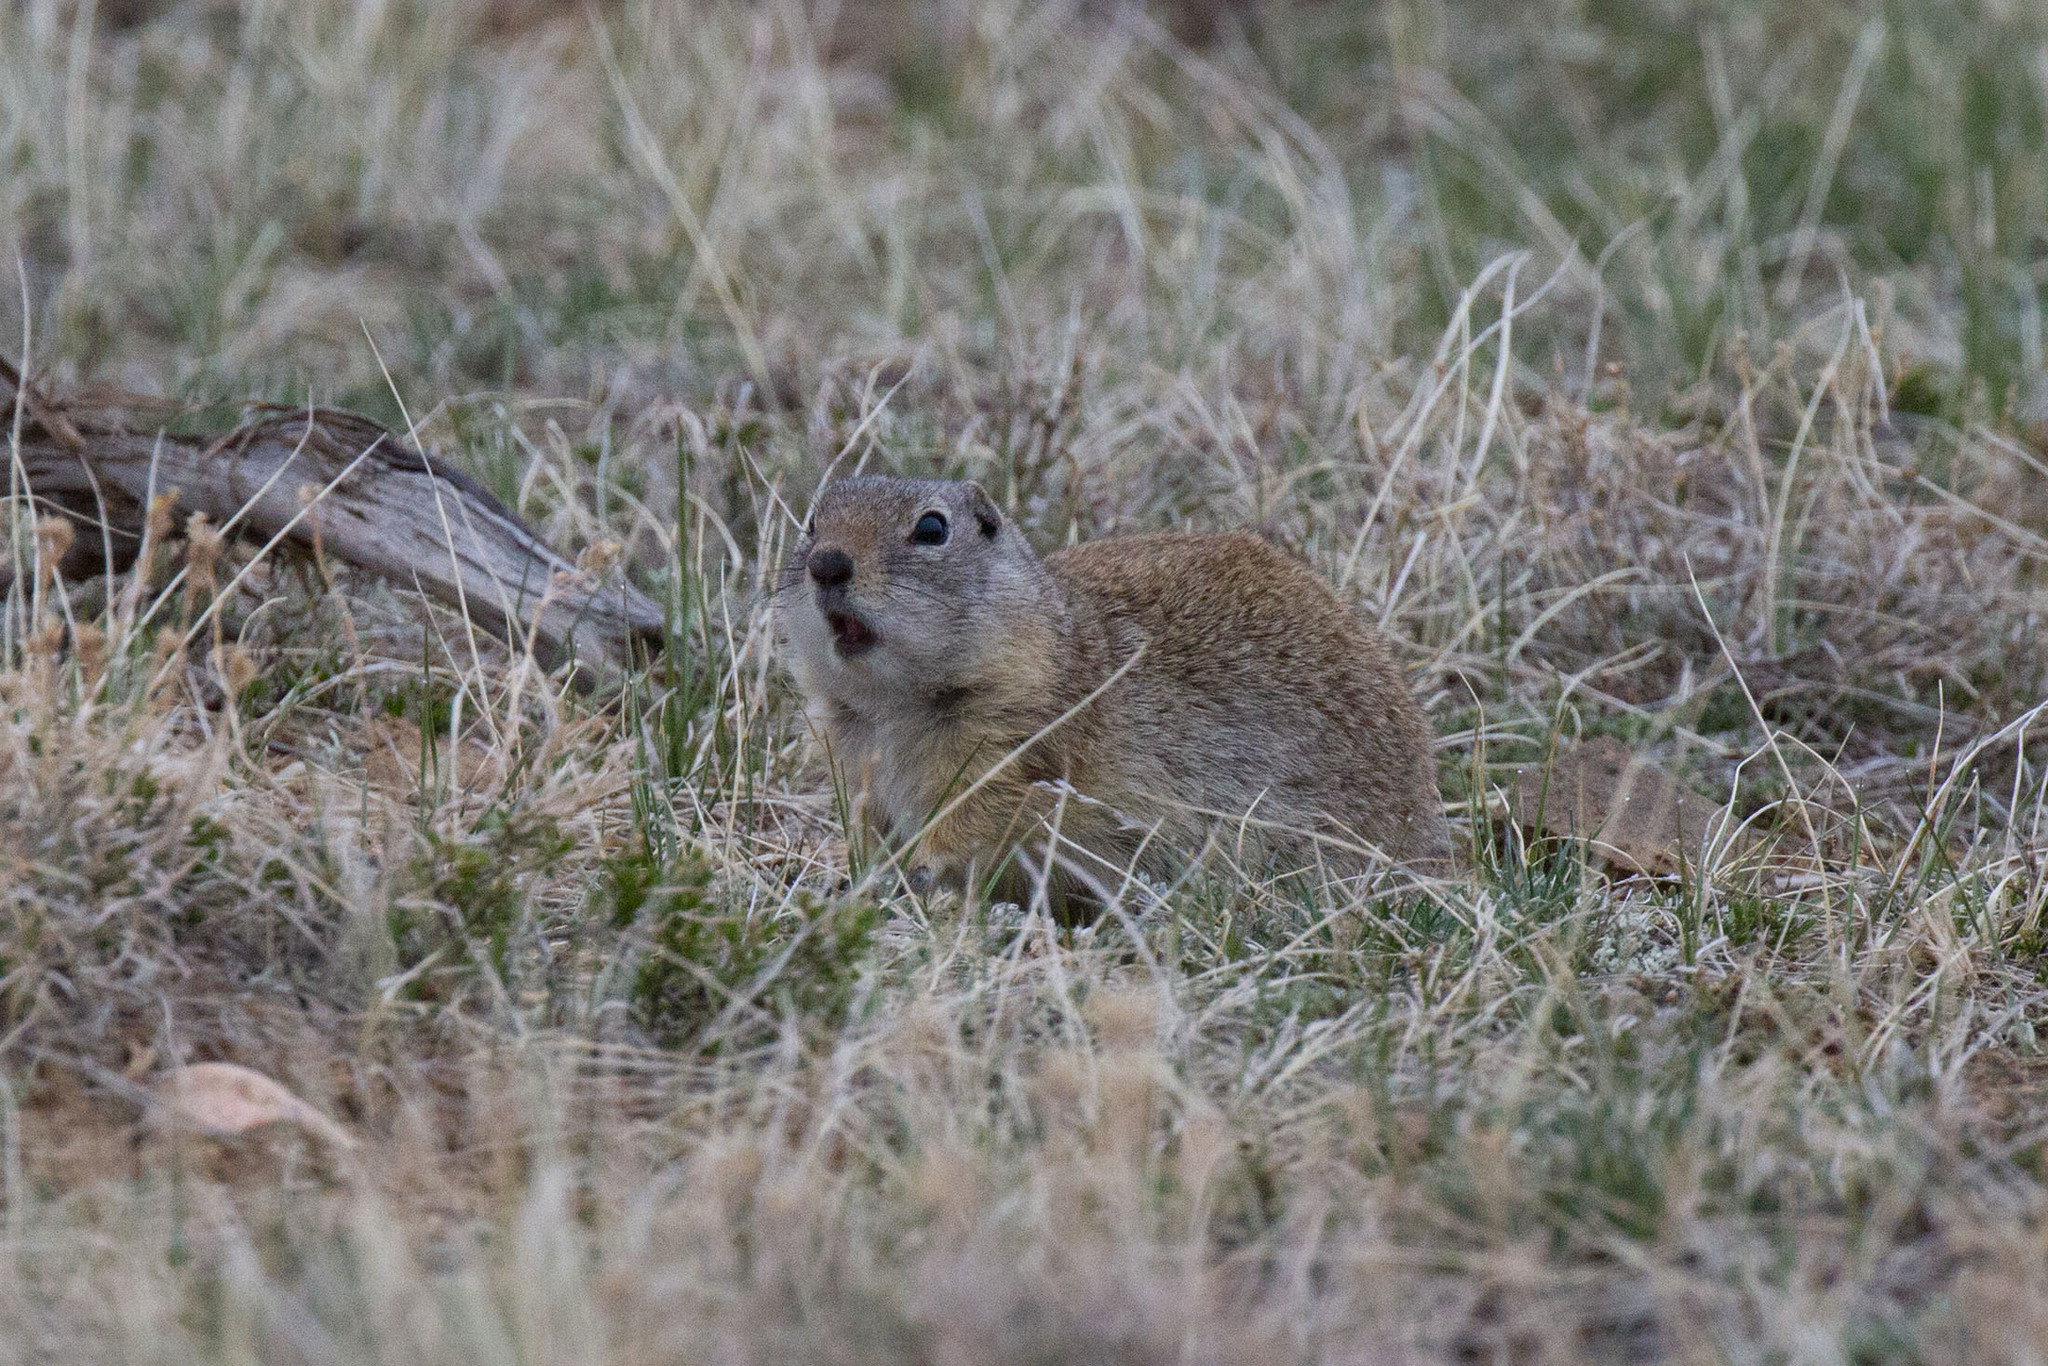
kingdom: Animalia
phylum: Chordata
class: Mammalia
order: Rodentia
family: Sciuridae
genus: Urocitellus
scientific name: Urocitellus elegans
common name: Wyoming ground squirrel
